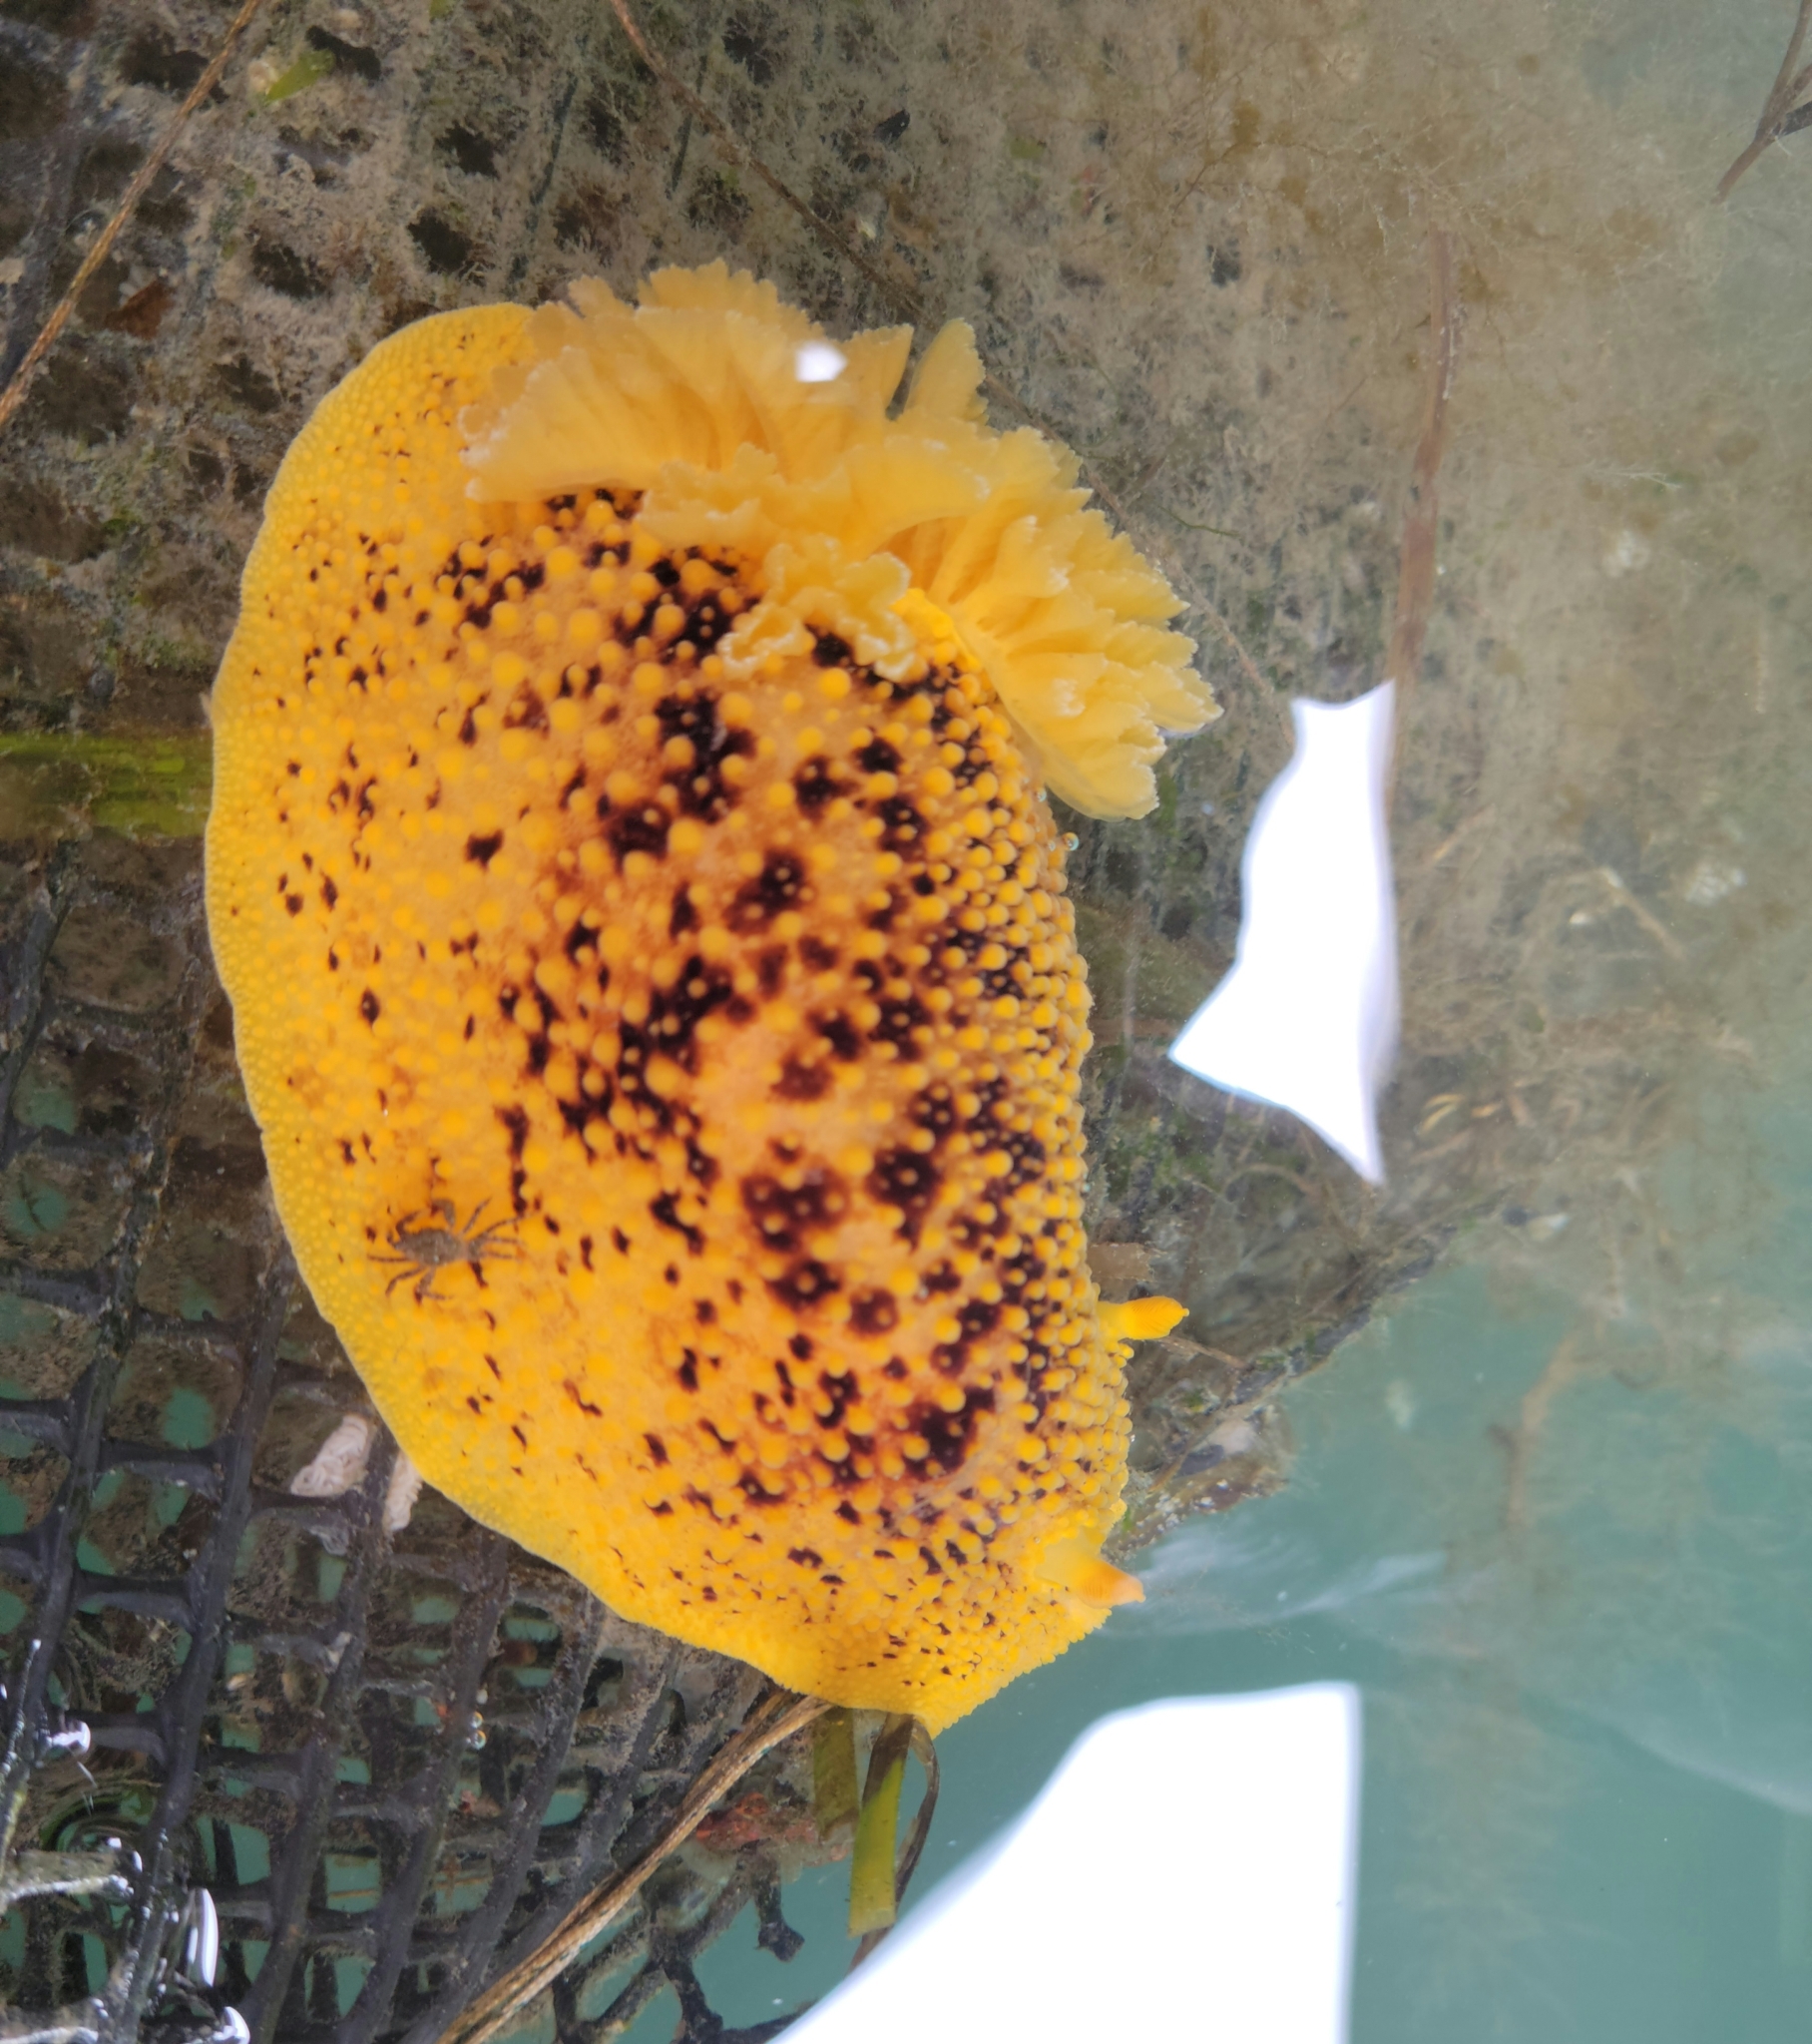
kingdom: Animalia
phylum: Mollusca
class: Gastropoda
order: Nudibranchia
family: Discodorididae
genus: Peltodoris
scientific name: Peltodoris nobilis
